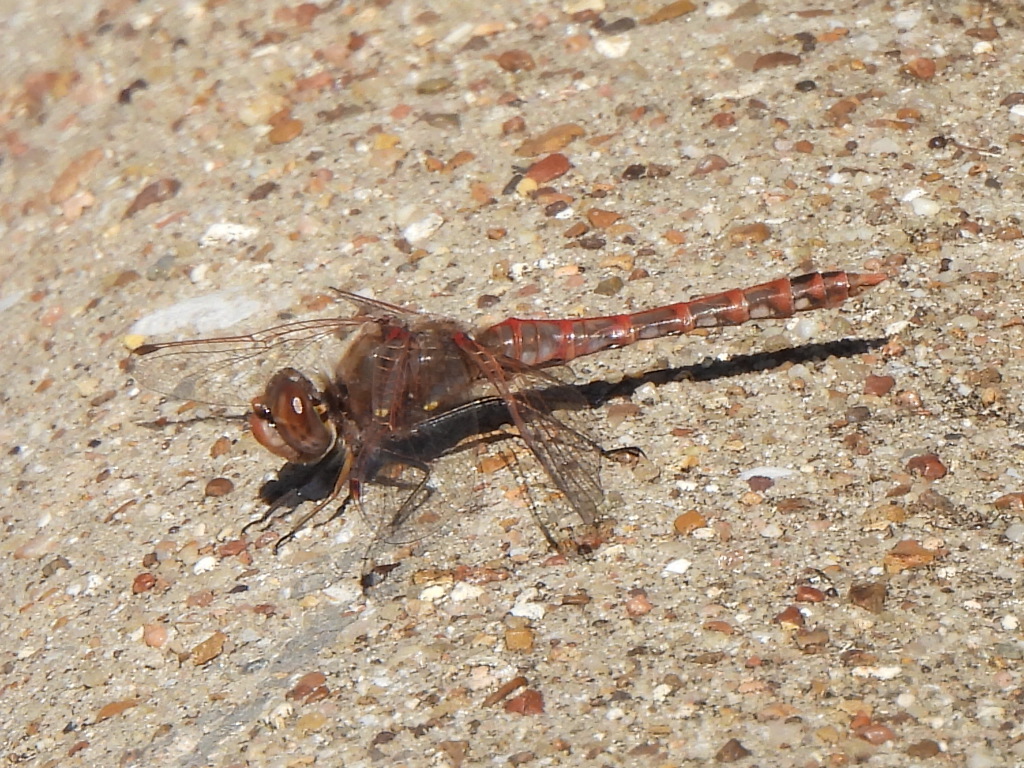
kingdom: Animalia
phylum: Arthropoda
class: Insecta
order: Odonata
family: Libellulidae
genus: Sympetrum
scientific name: Sympetrum corruptum
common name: Variegated meadowhawk
